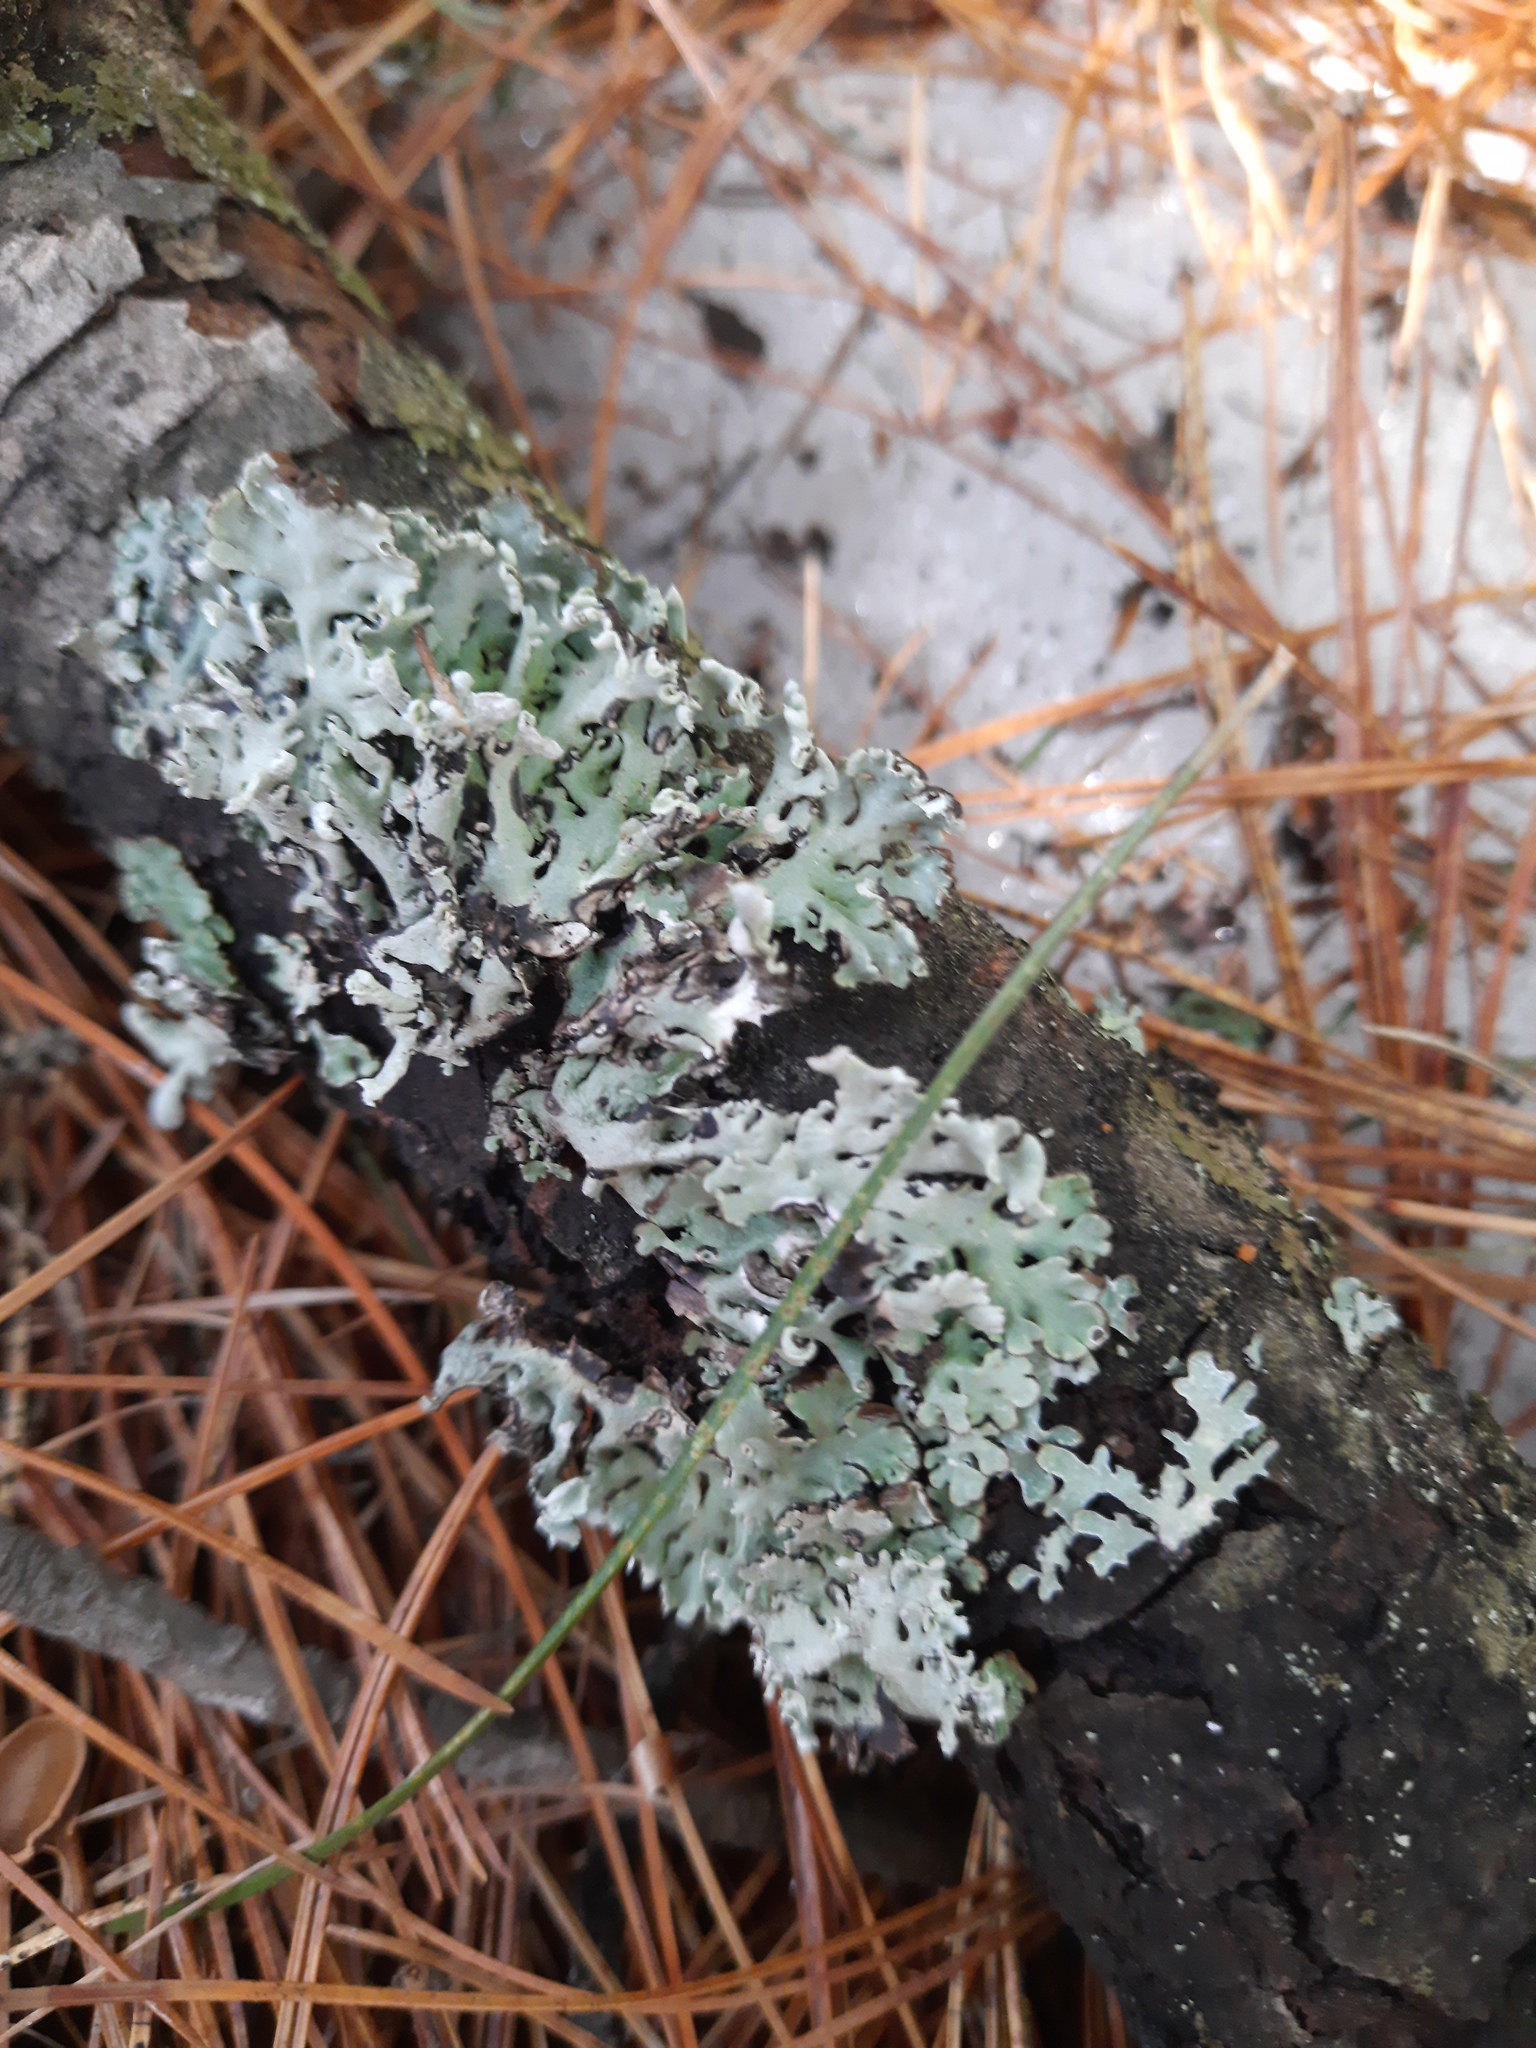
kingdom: Fungi
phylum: Ascomycota
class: Lecanoromycetes
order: Lecanorales
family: Parmeliaceae
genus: Hypogymnia
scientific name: Hypogymnia physodes
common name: Dark crottle
